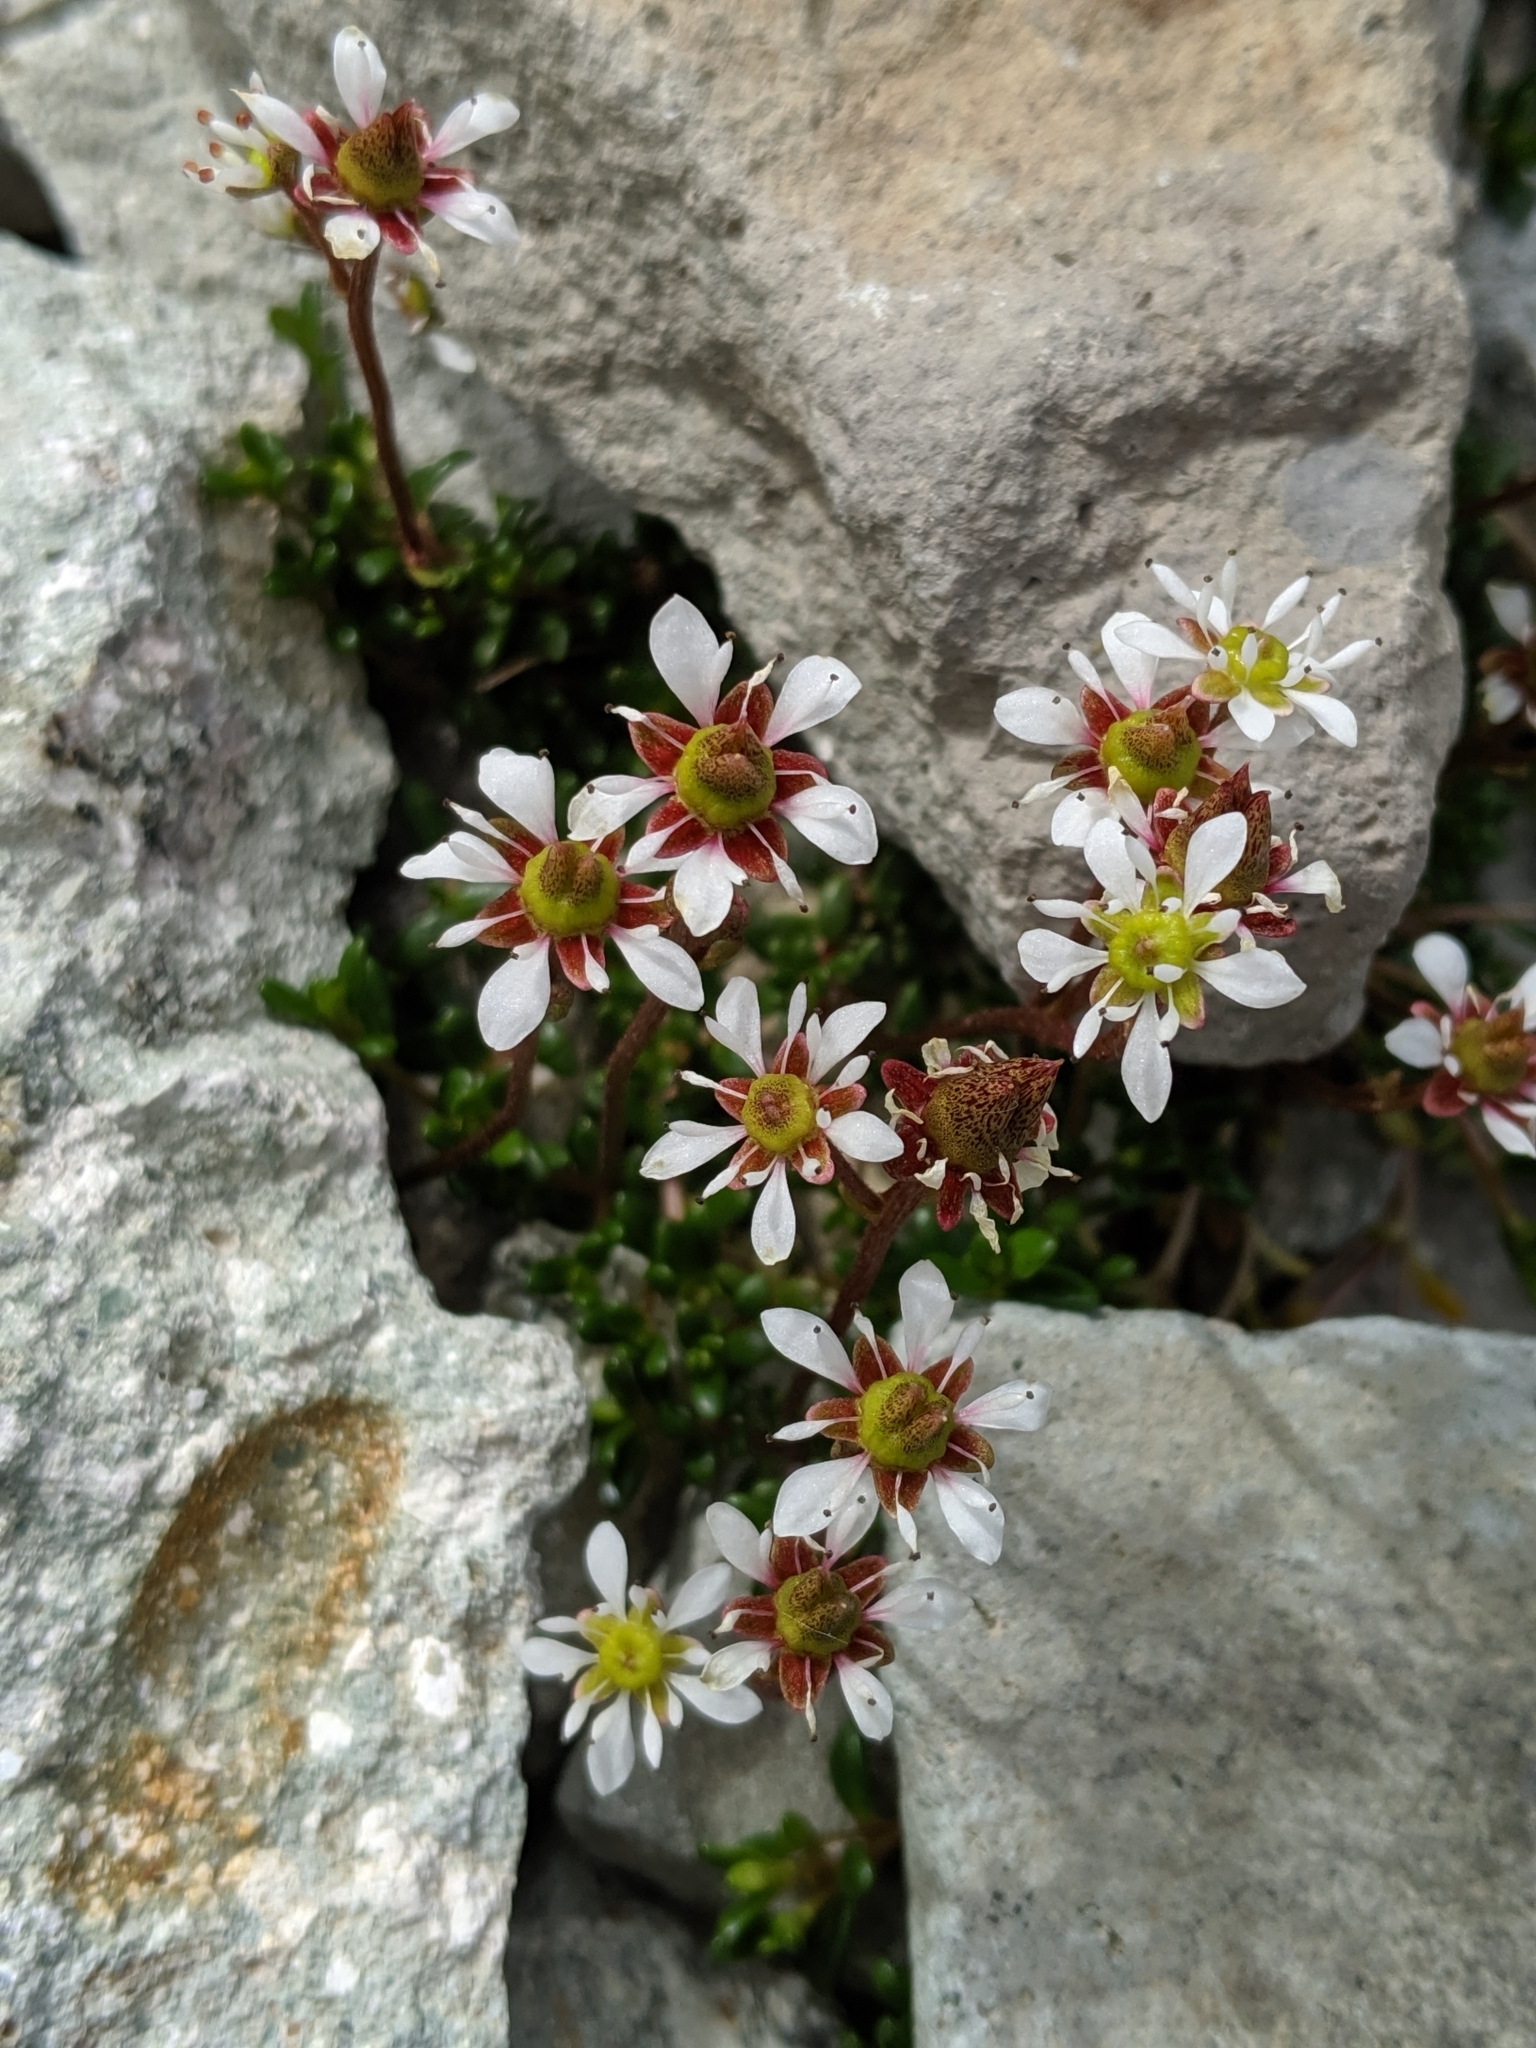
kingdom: Plantae
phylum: Tracheophyta
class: Magnoliopsida
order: Saxifragales
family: Saxifragaceae
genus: Micranthes
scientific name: Micranthes tolmiei
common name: Tolmie's saxifrage
